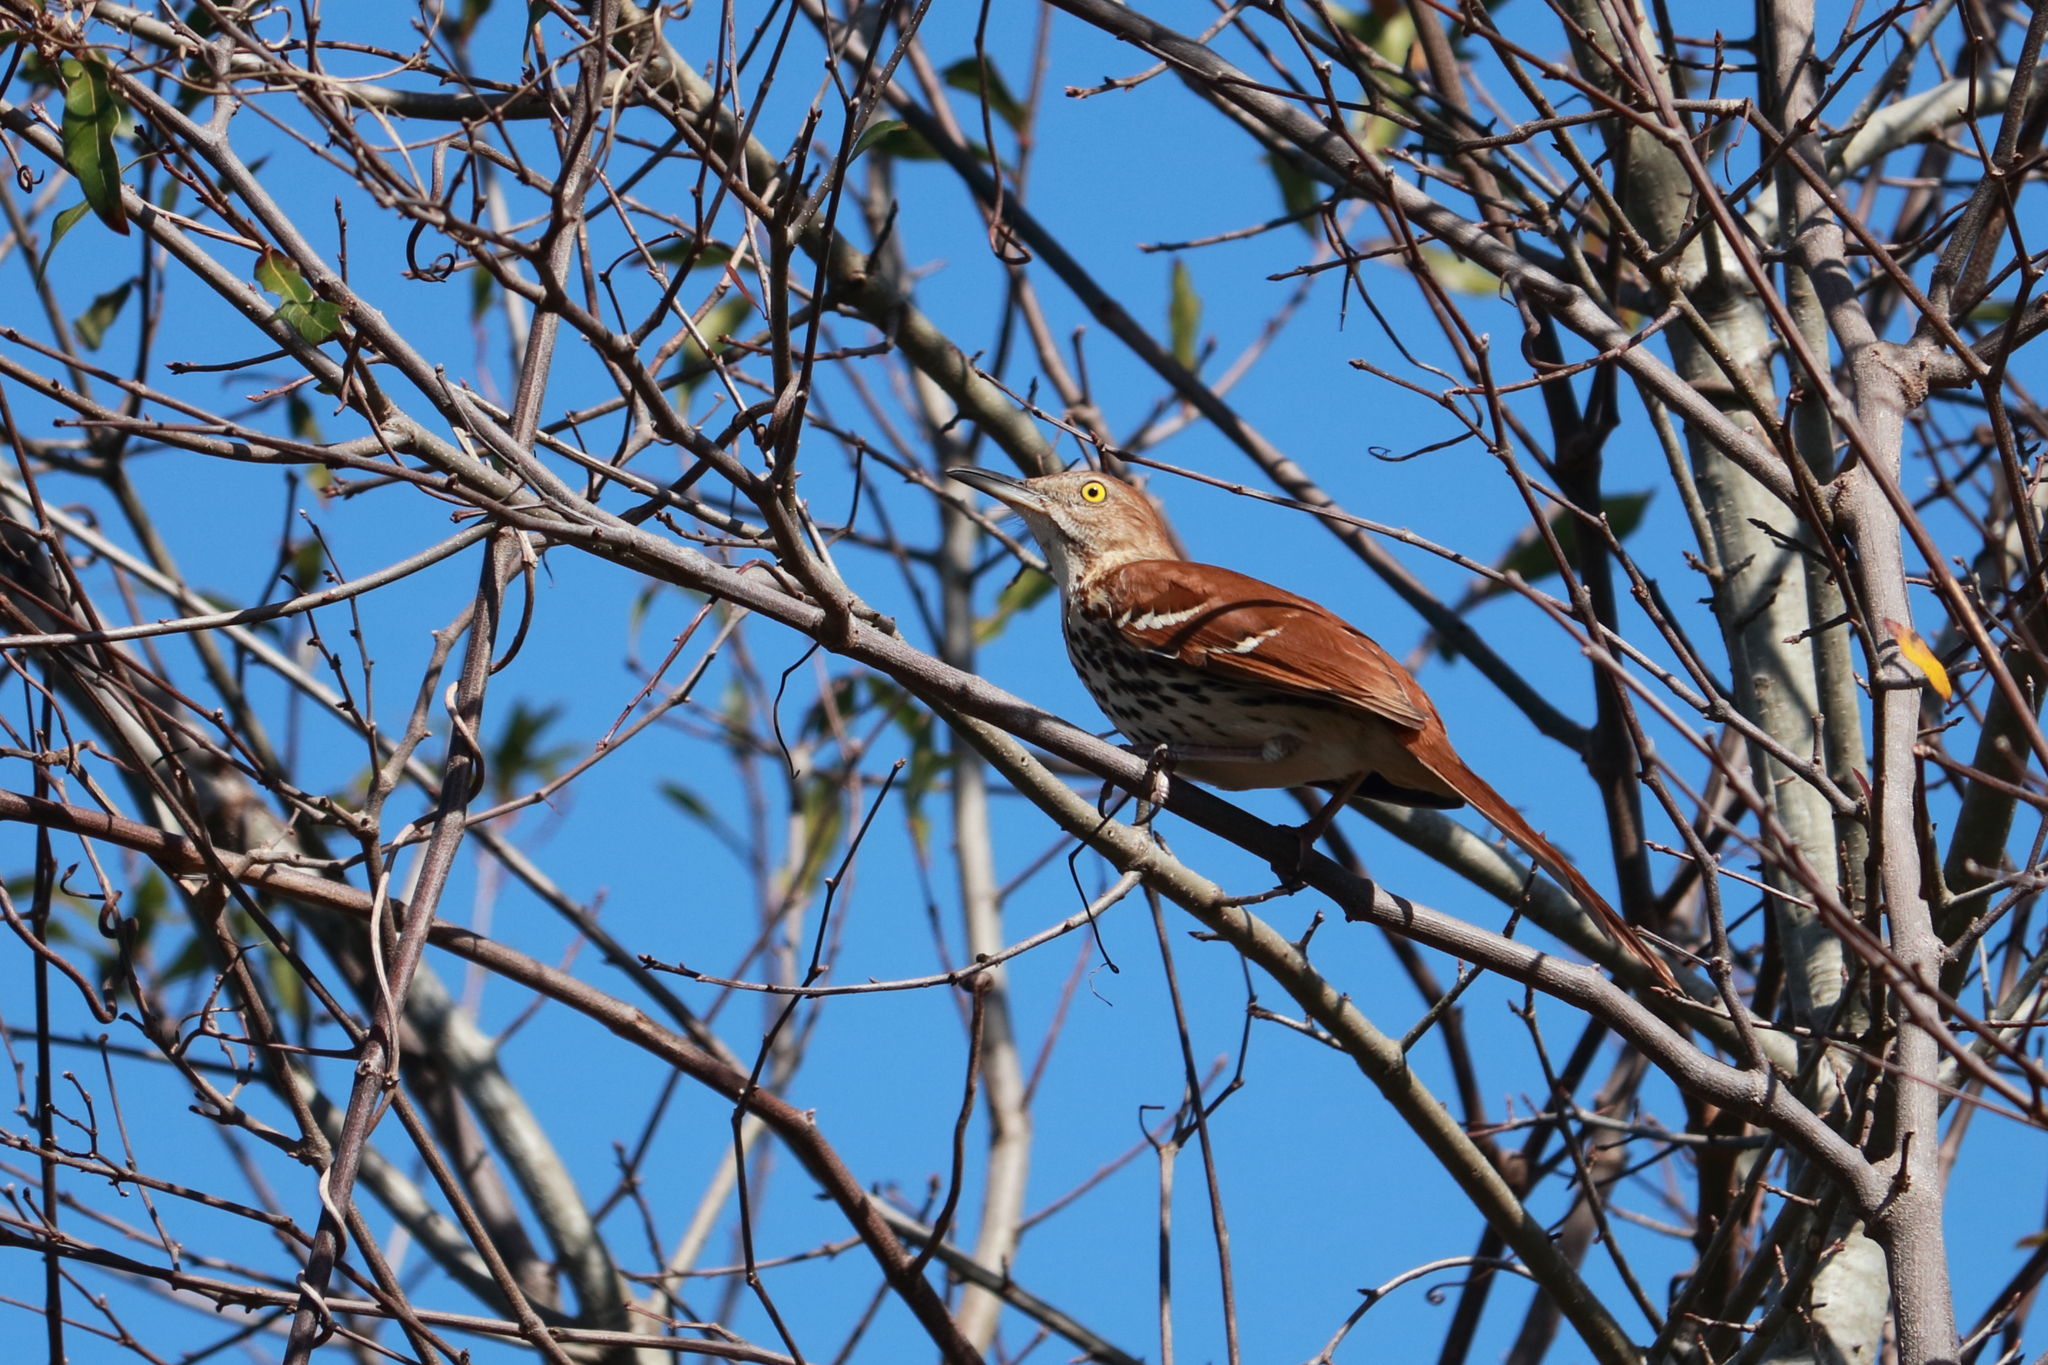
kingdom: Animalia
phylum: Chordata
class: Aves
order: Passeriformes
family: Mimidae
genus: Toxostoma
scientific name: Toxostoma rufum
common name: Brown thrasher
